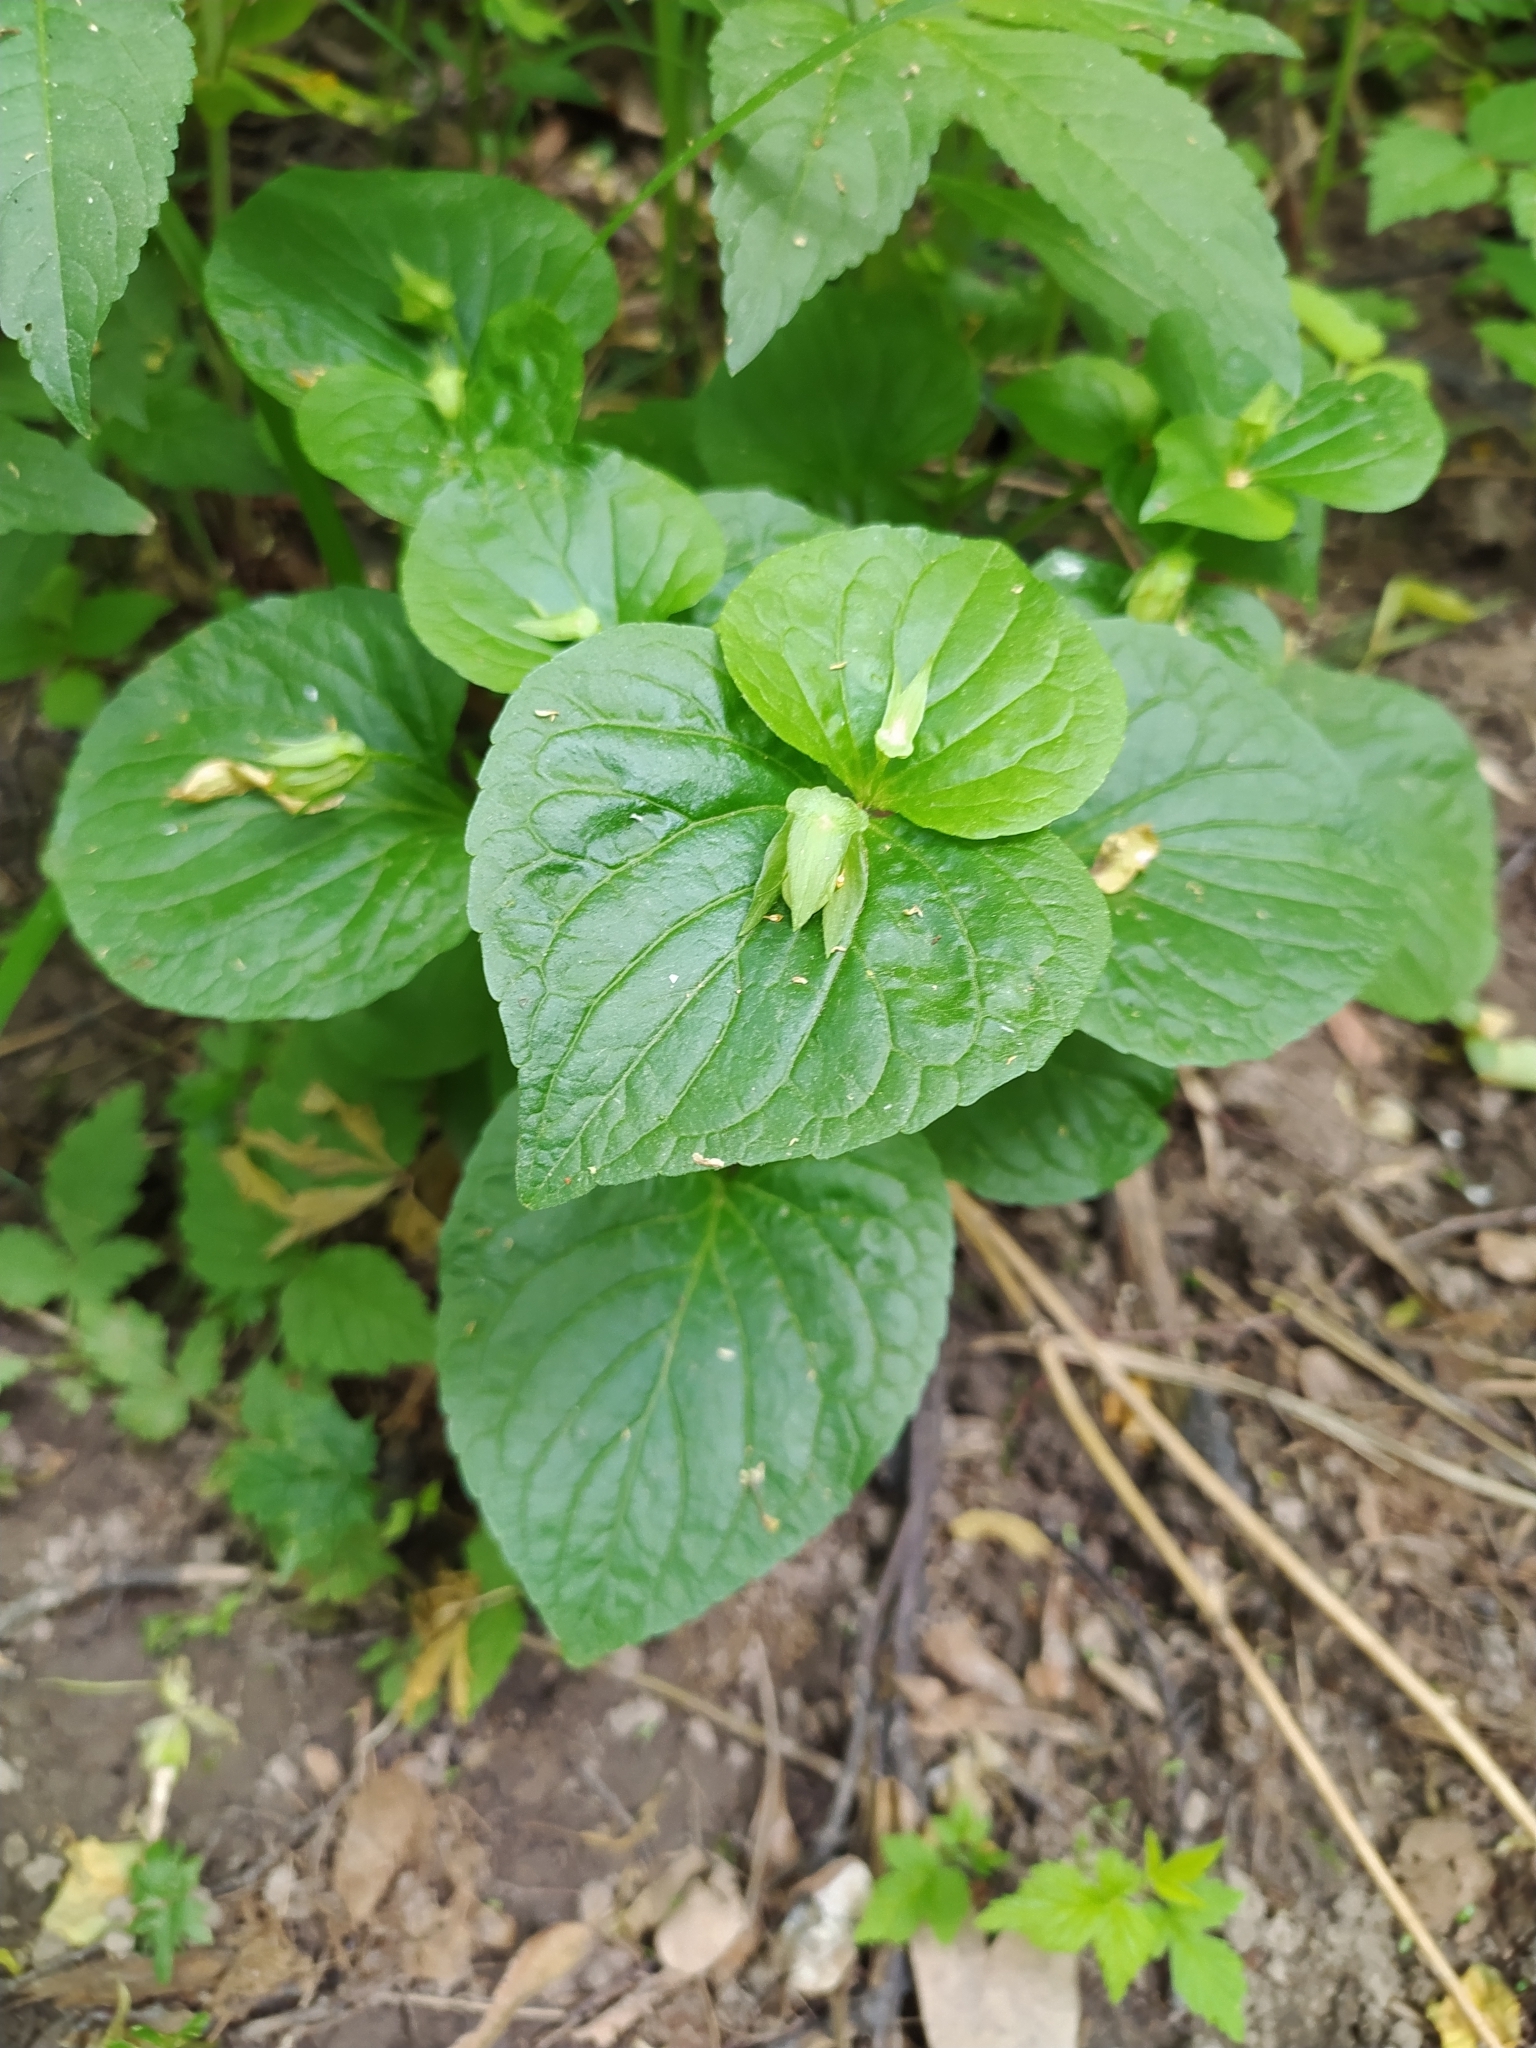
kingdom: Plantae
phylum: Tracheophyta
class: Magnoliopsida
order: Malpighiales
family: Violaceae
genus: Viola
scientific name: Viola mirabilis
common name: Wonder violet
